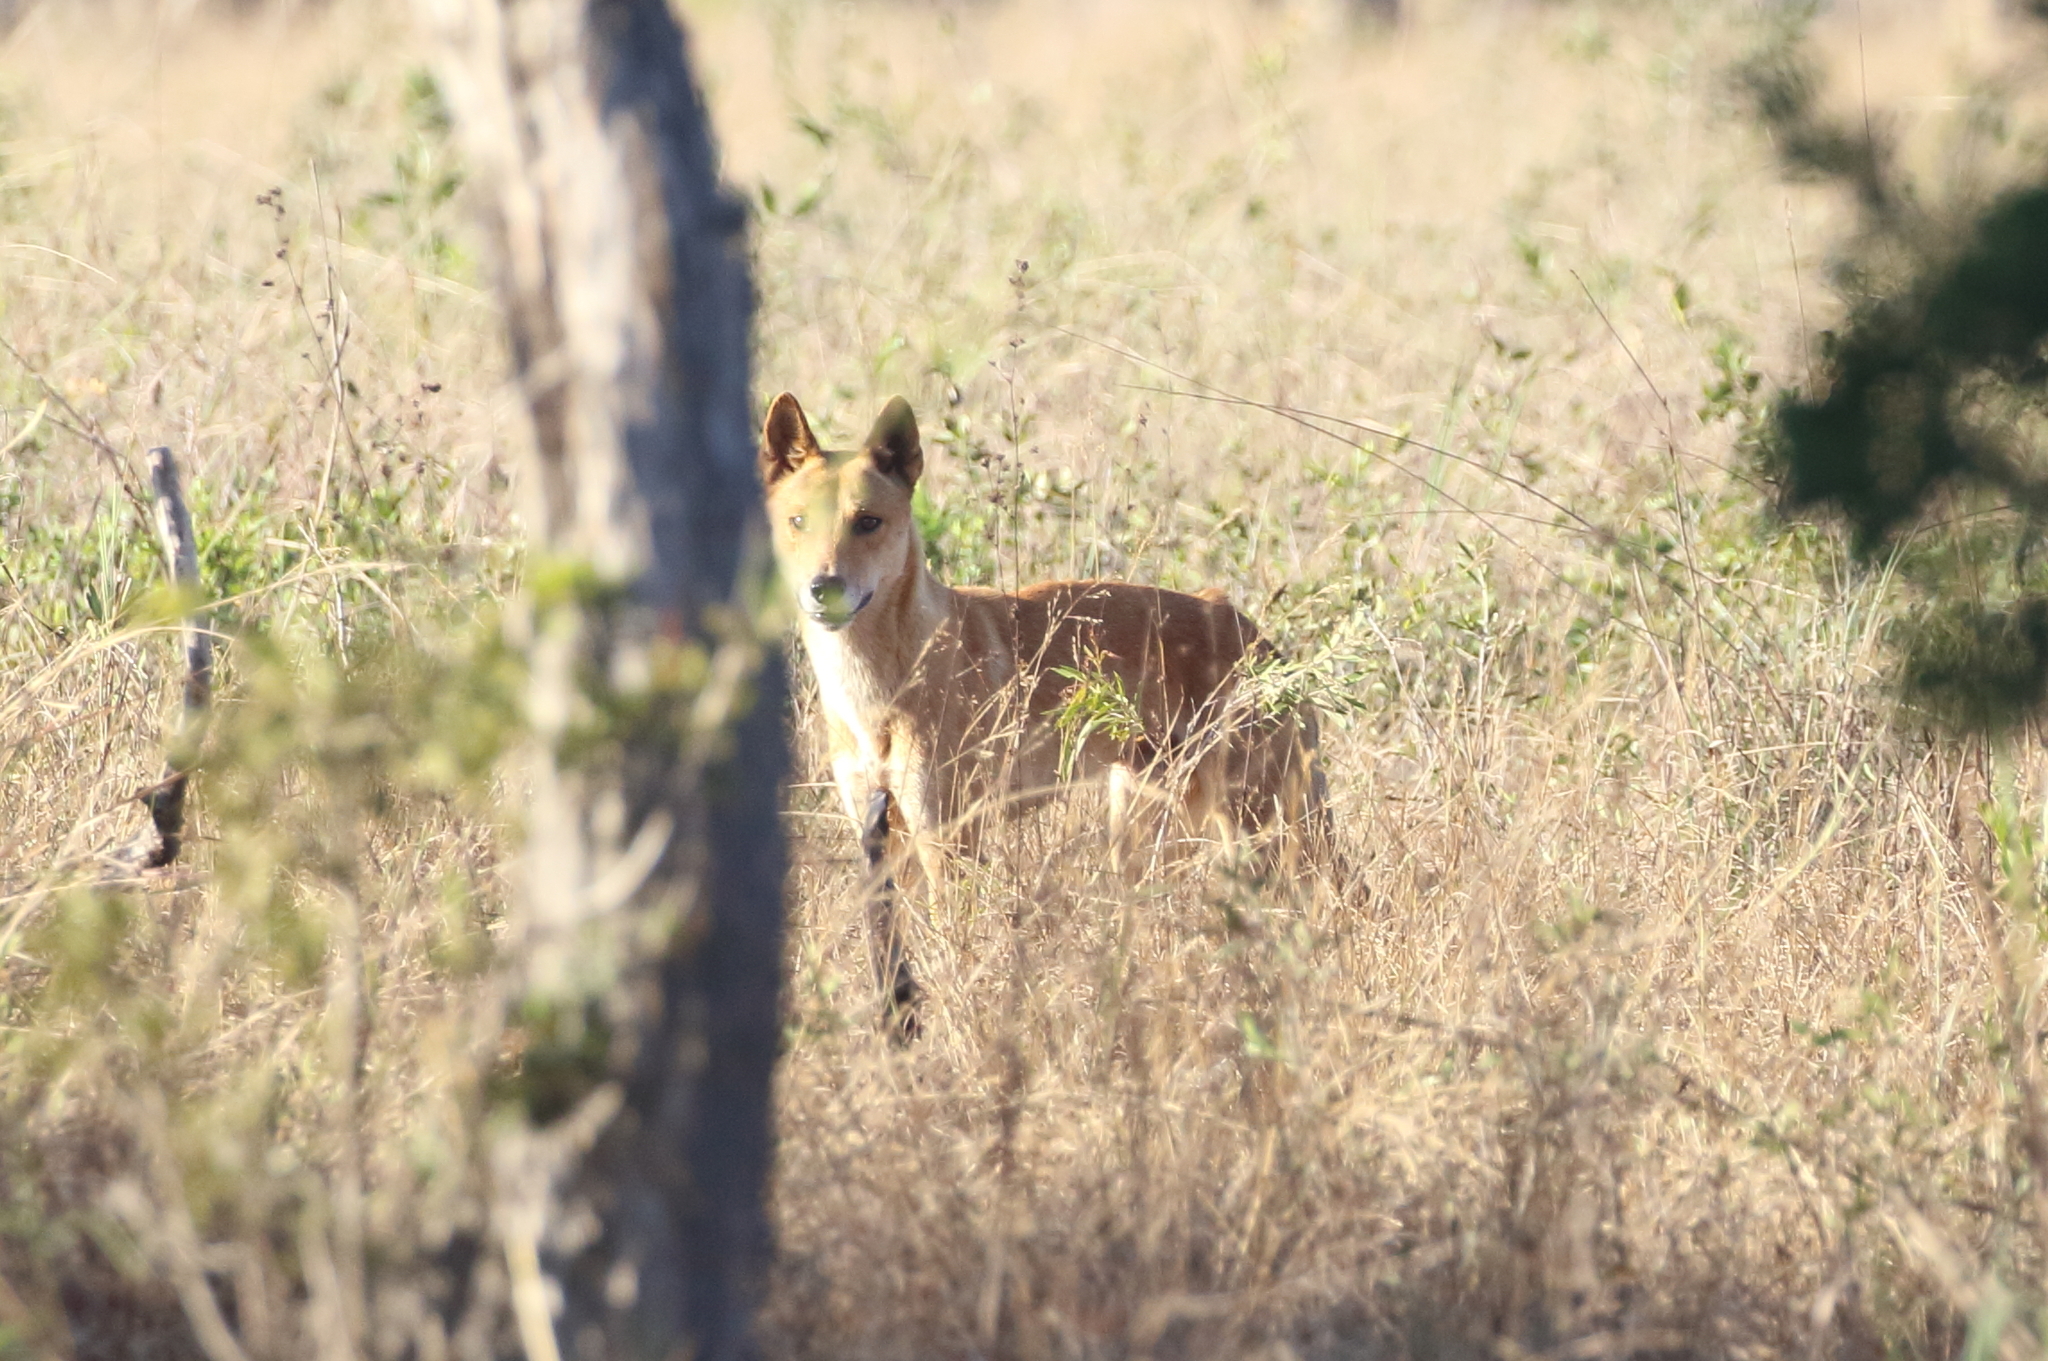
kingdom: Animalia
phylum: Chordata
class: Mammalia
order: Carnivora
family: Canidae
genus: Canis
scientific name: Canis lupus
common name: Gray wolf
